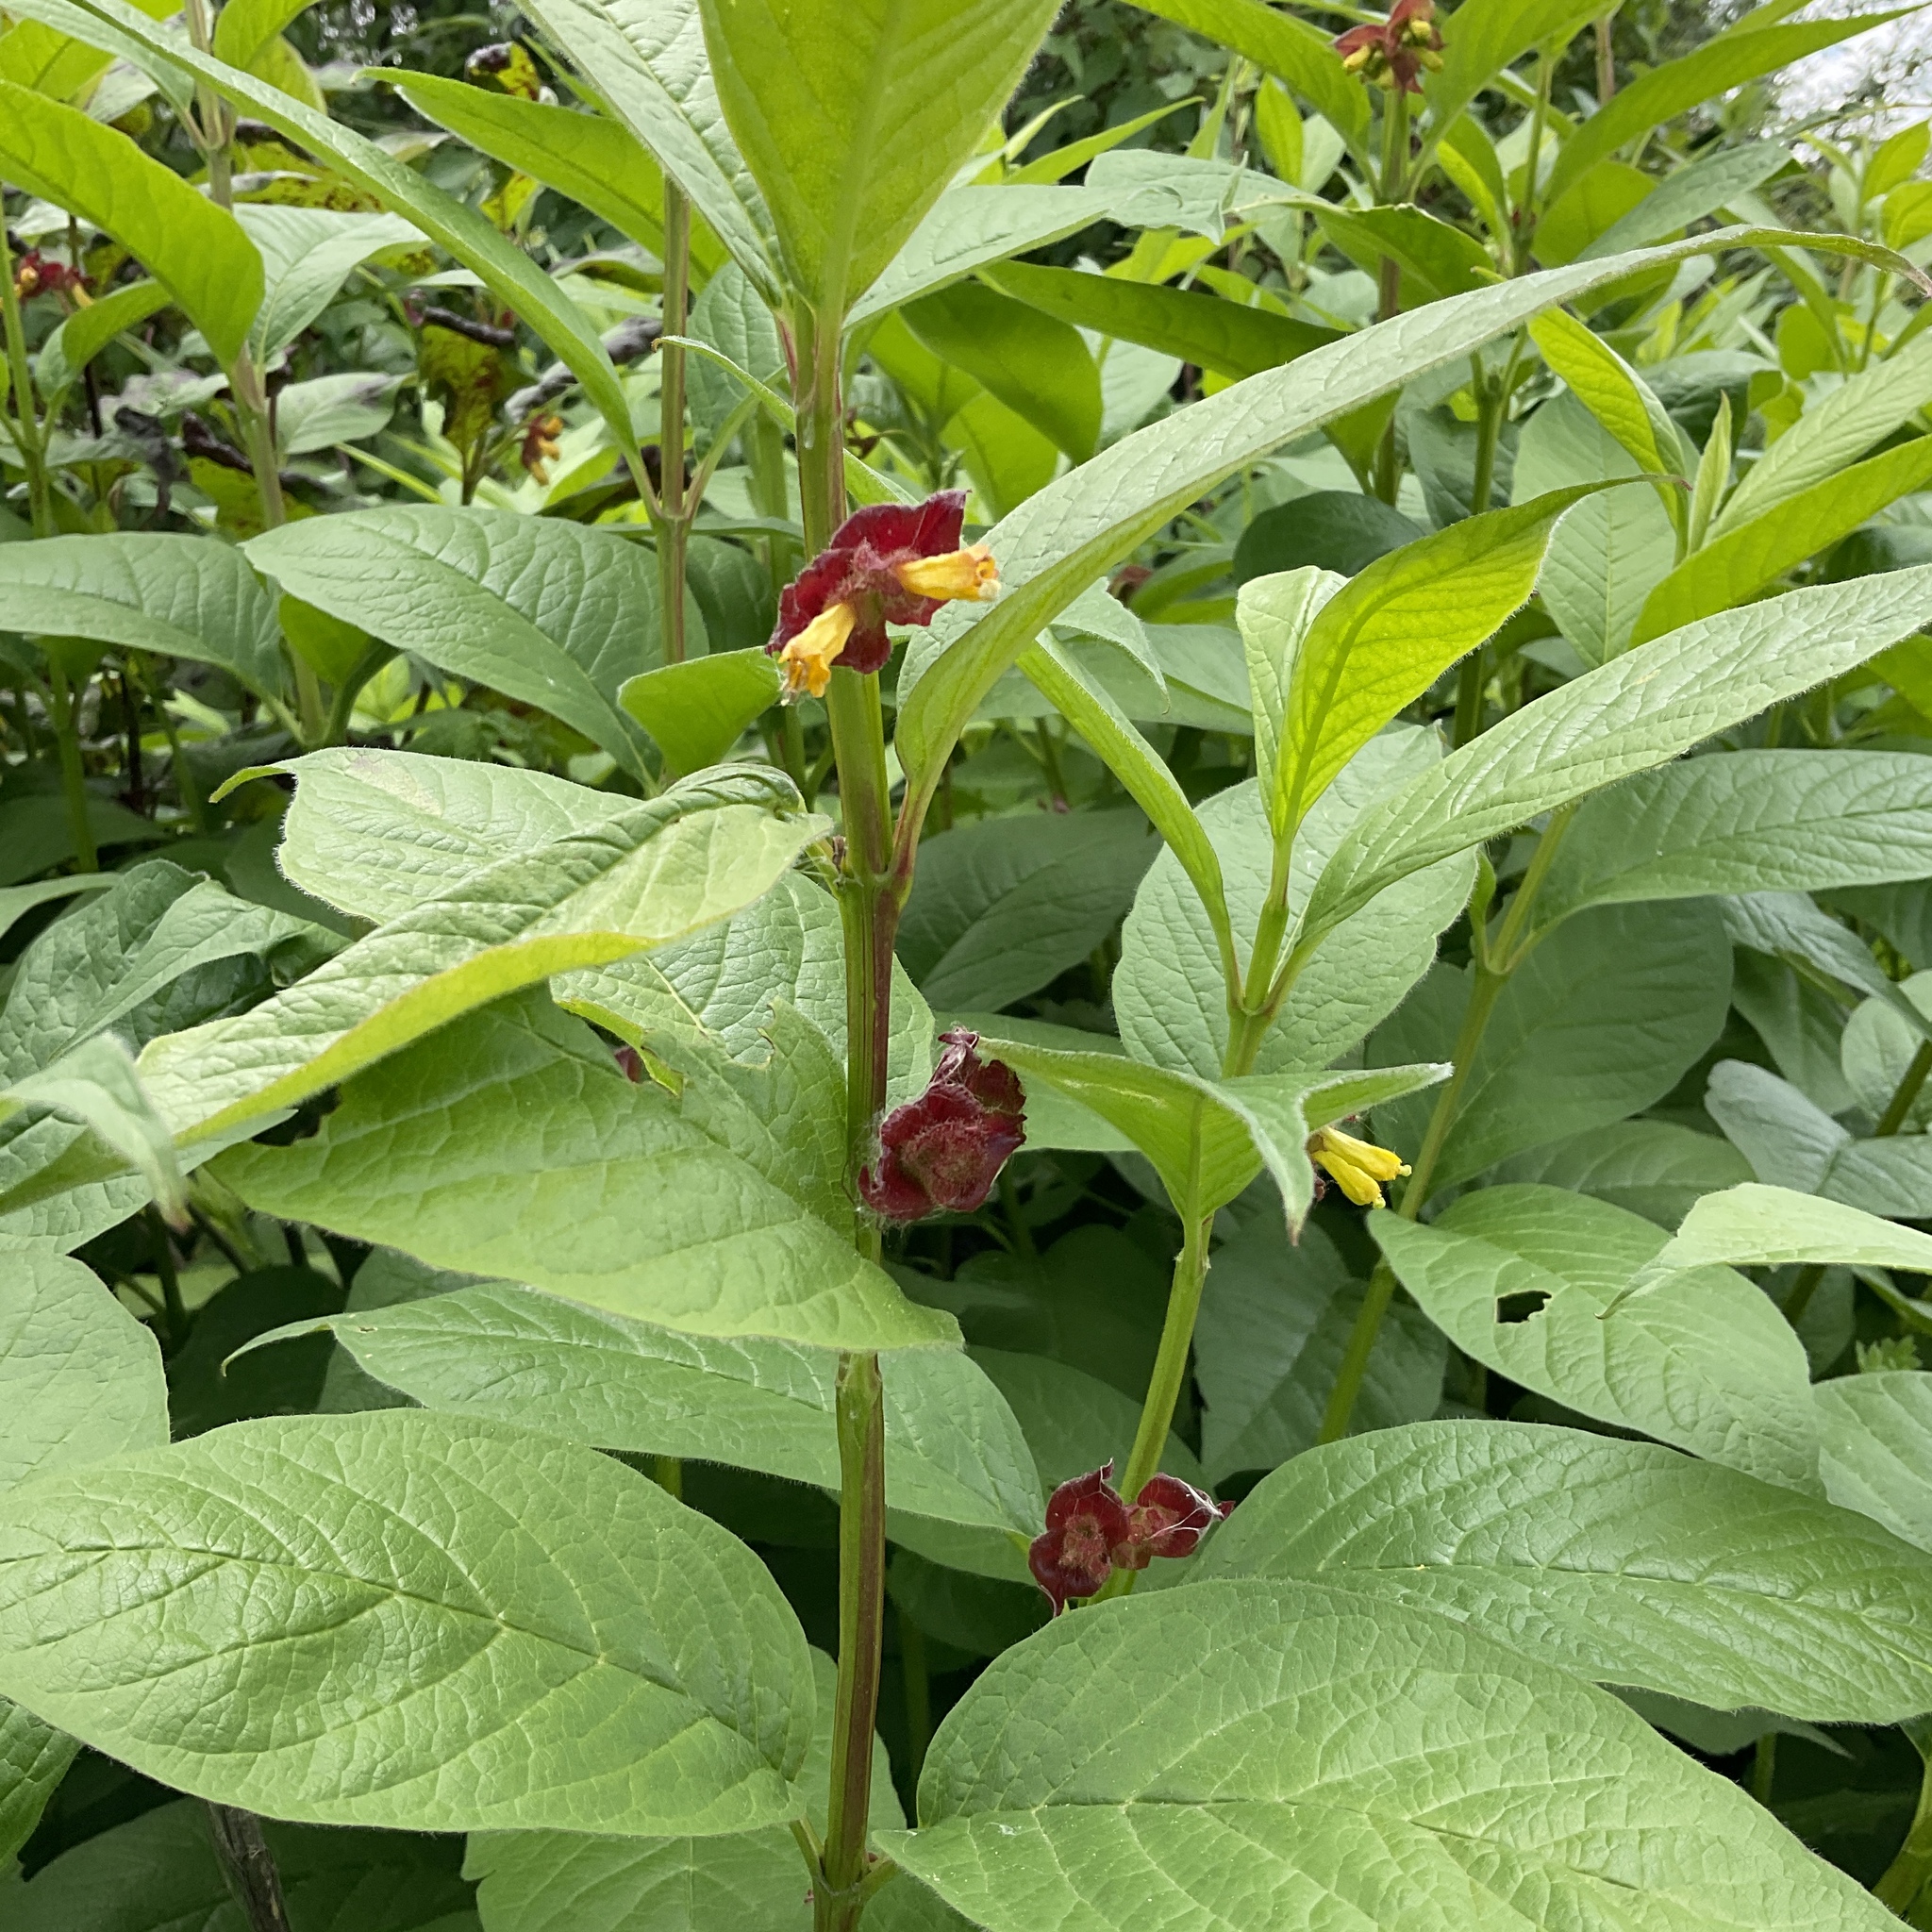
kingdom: Plantae
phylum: Tracheophyta
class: Magnoliopsida
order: Dipsacales
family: Caprifoliaceae
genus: Lonicera
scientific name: Lonicera involucrata
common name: Californian honeysuckle
